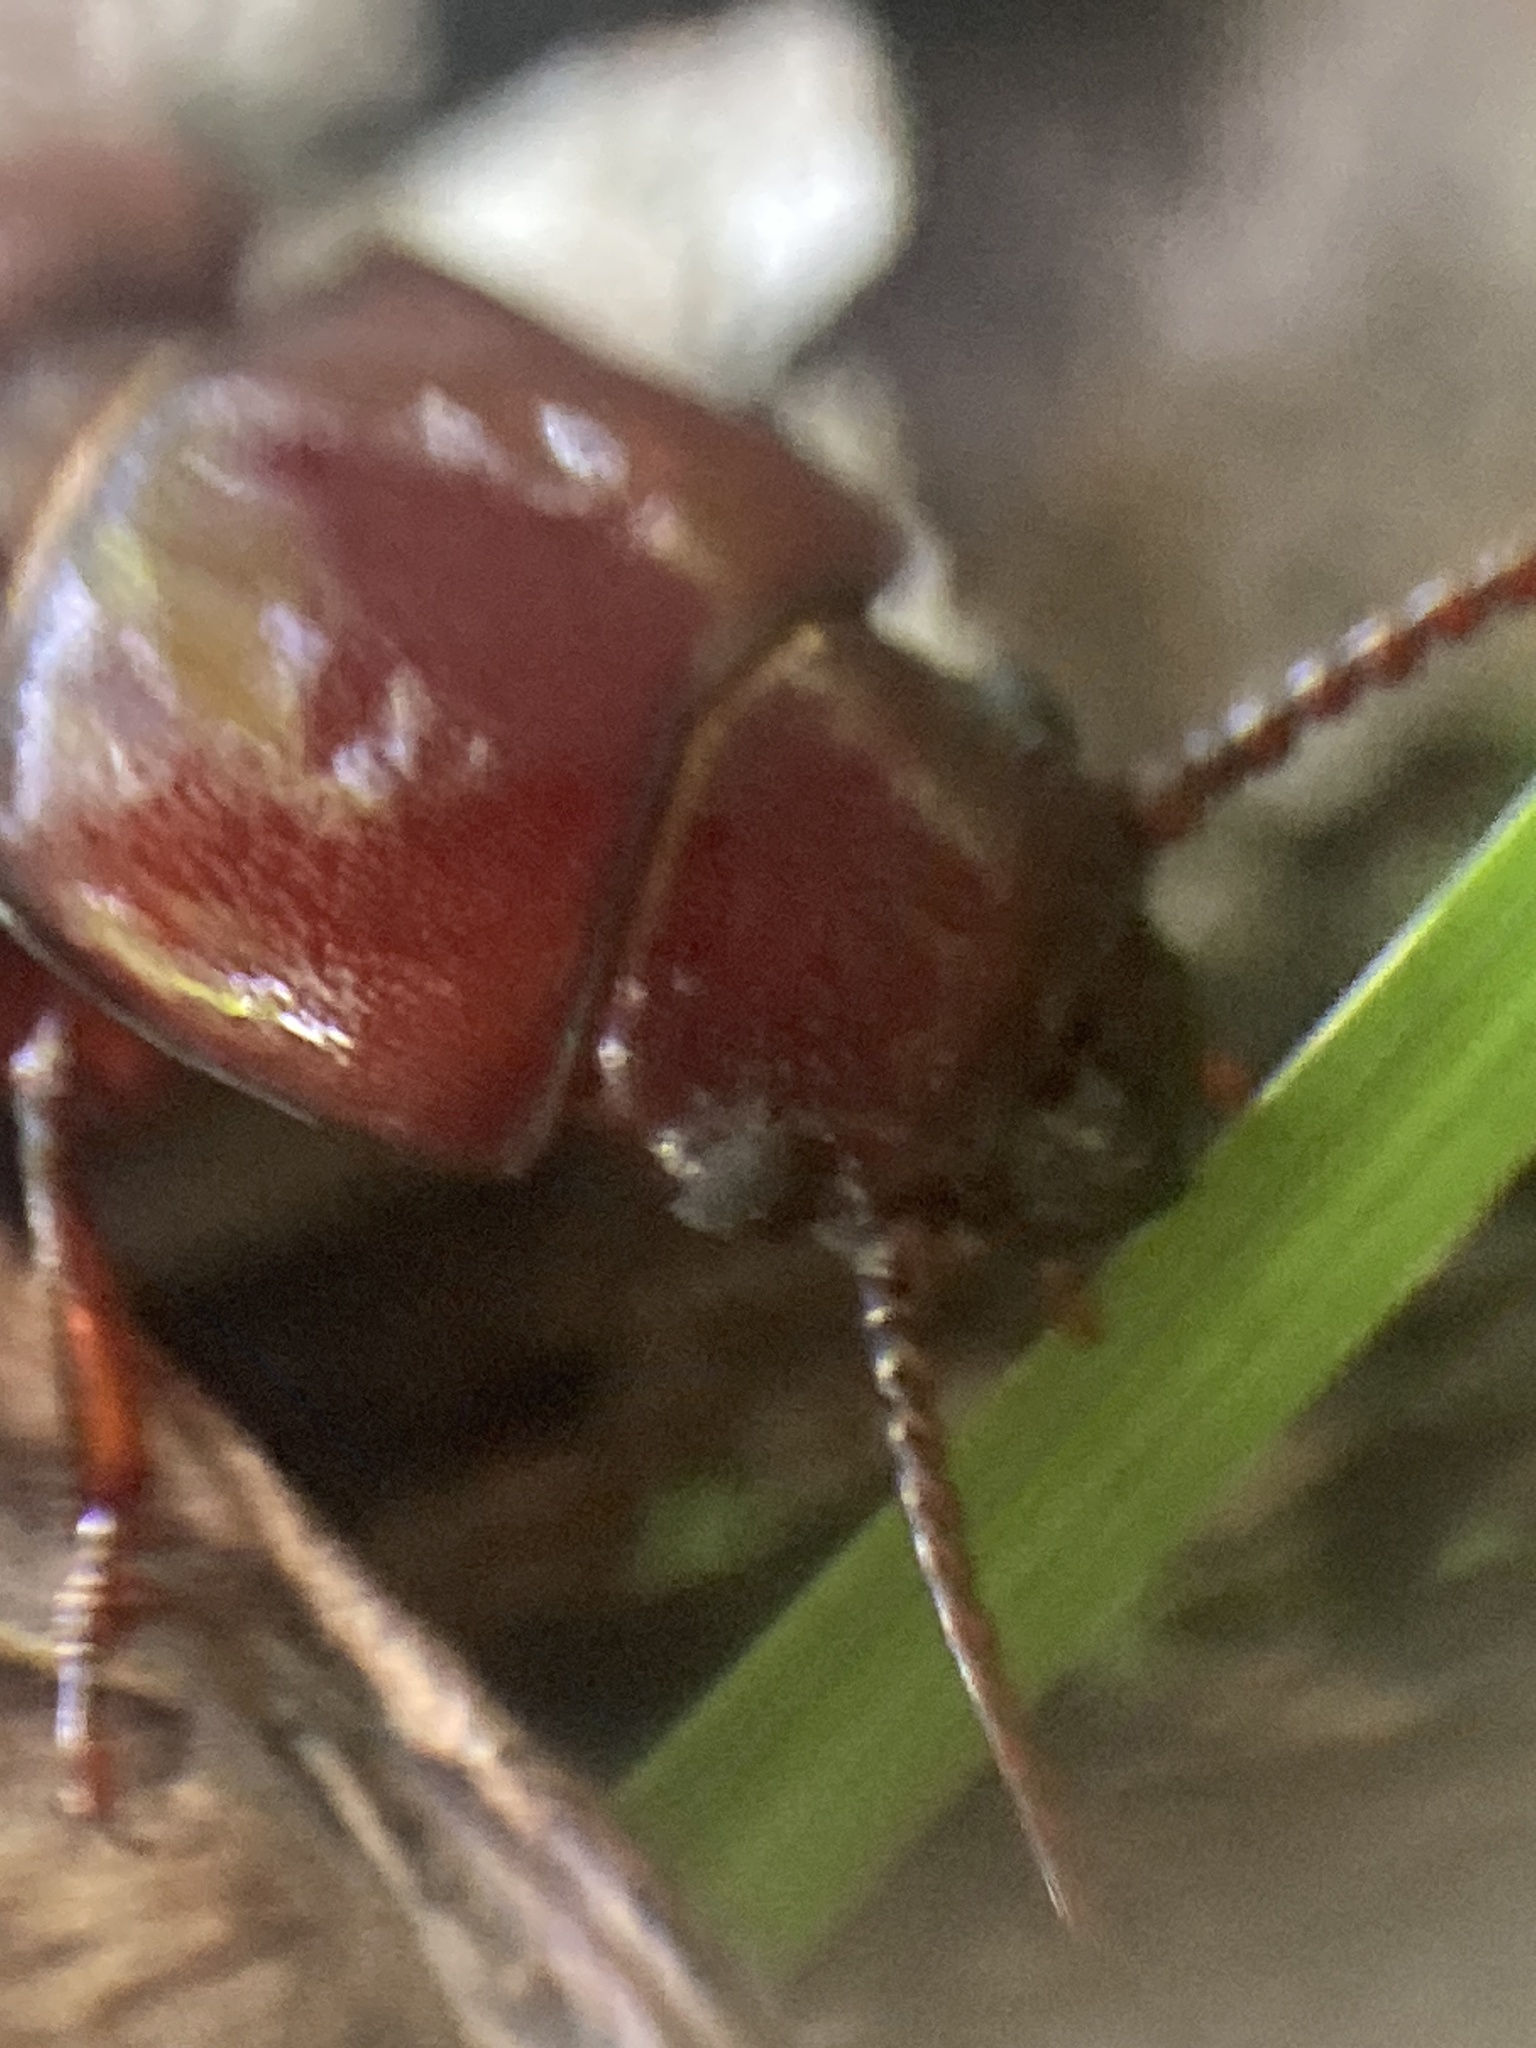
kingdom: Animalia
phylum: Arthropoda
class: Insecta
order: Coleoptera
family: Cerambycidae
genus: Neandra
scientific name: Neandra brunnea
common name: Pole borer
